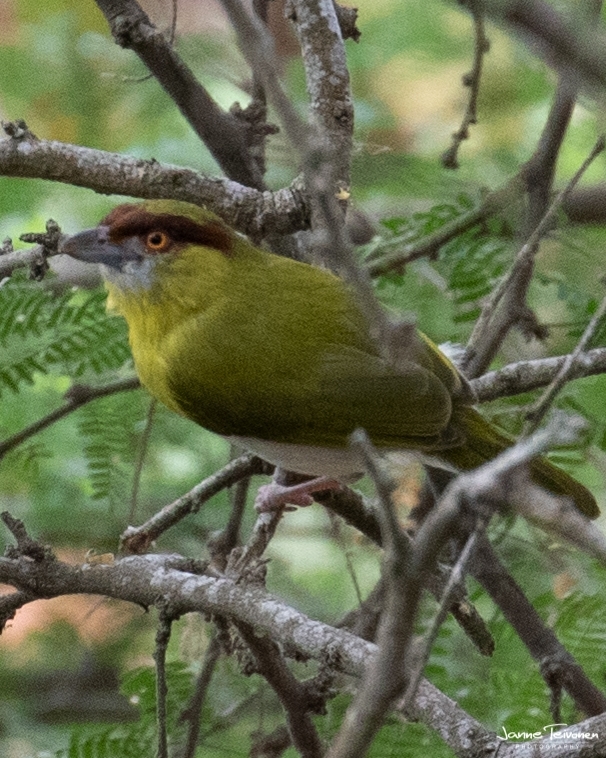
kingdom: Animalia
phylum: Chordata
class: Aves
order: Passeriformes
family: Vireonidae
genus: Cyclarhis
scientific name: Cyclarhis gujanensis
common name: Rufous-browed peppershrike
